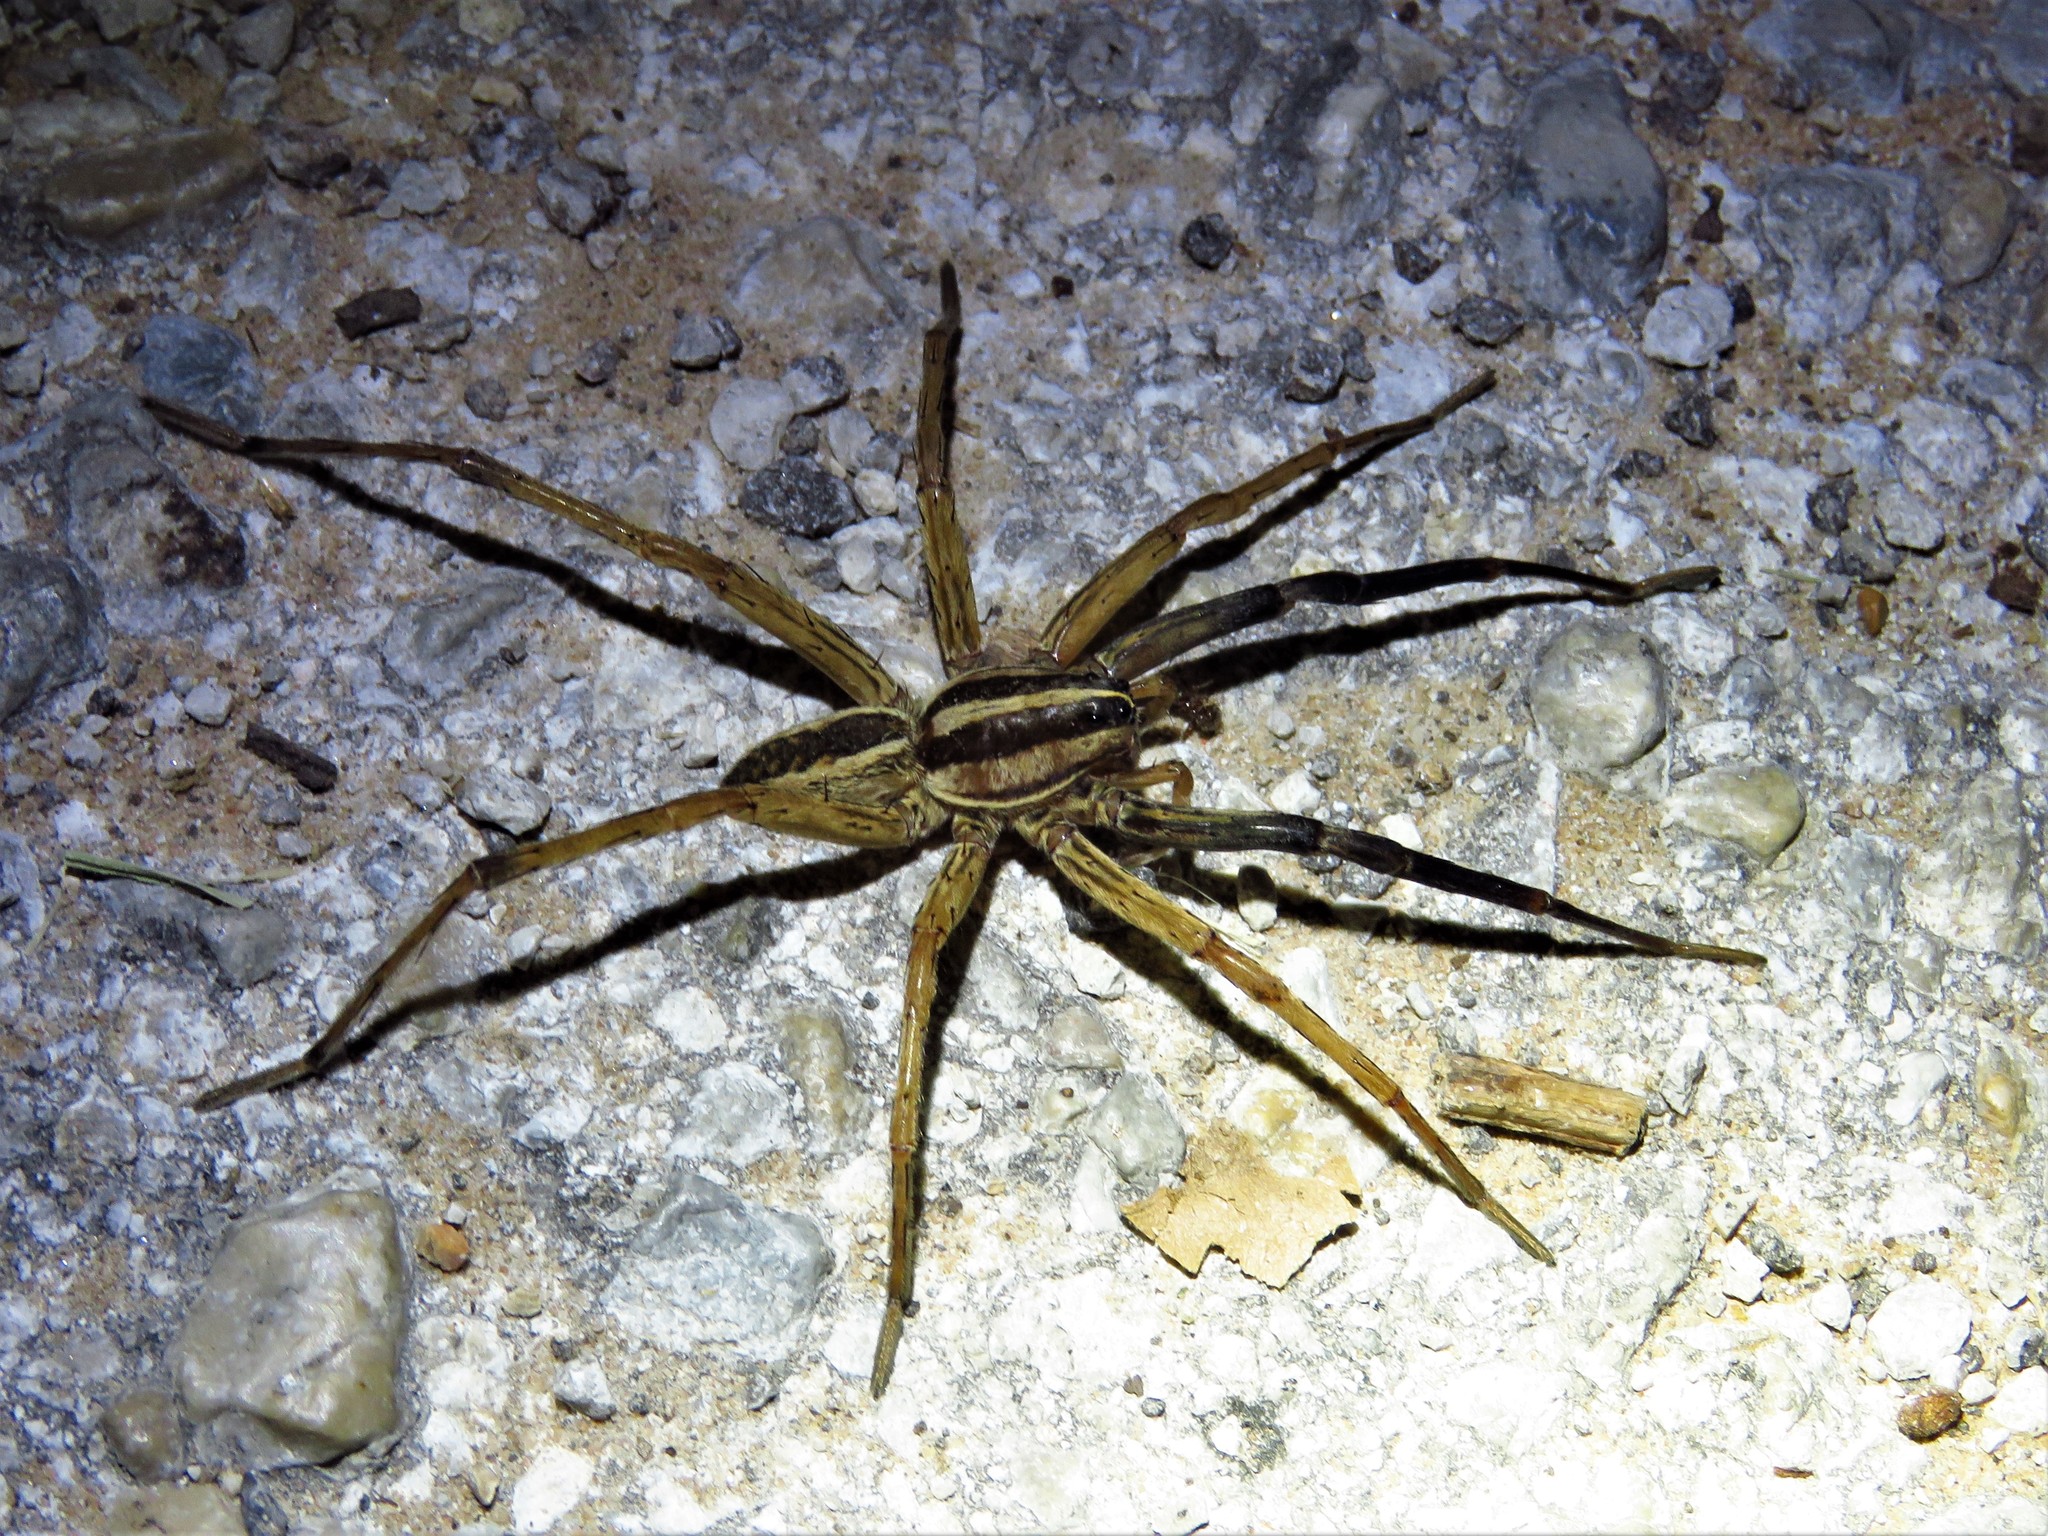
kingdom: Animalia
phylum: Arthropoda
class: Arachnida
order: Araneae
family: Lycosidae
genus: Rabidosa
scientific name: Rabidosa rabida
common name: Rabid wolf spider
